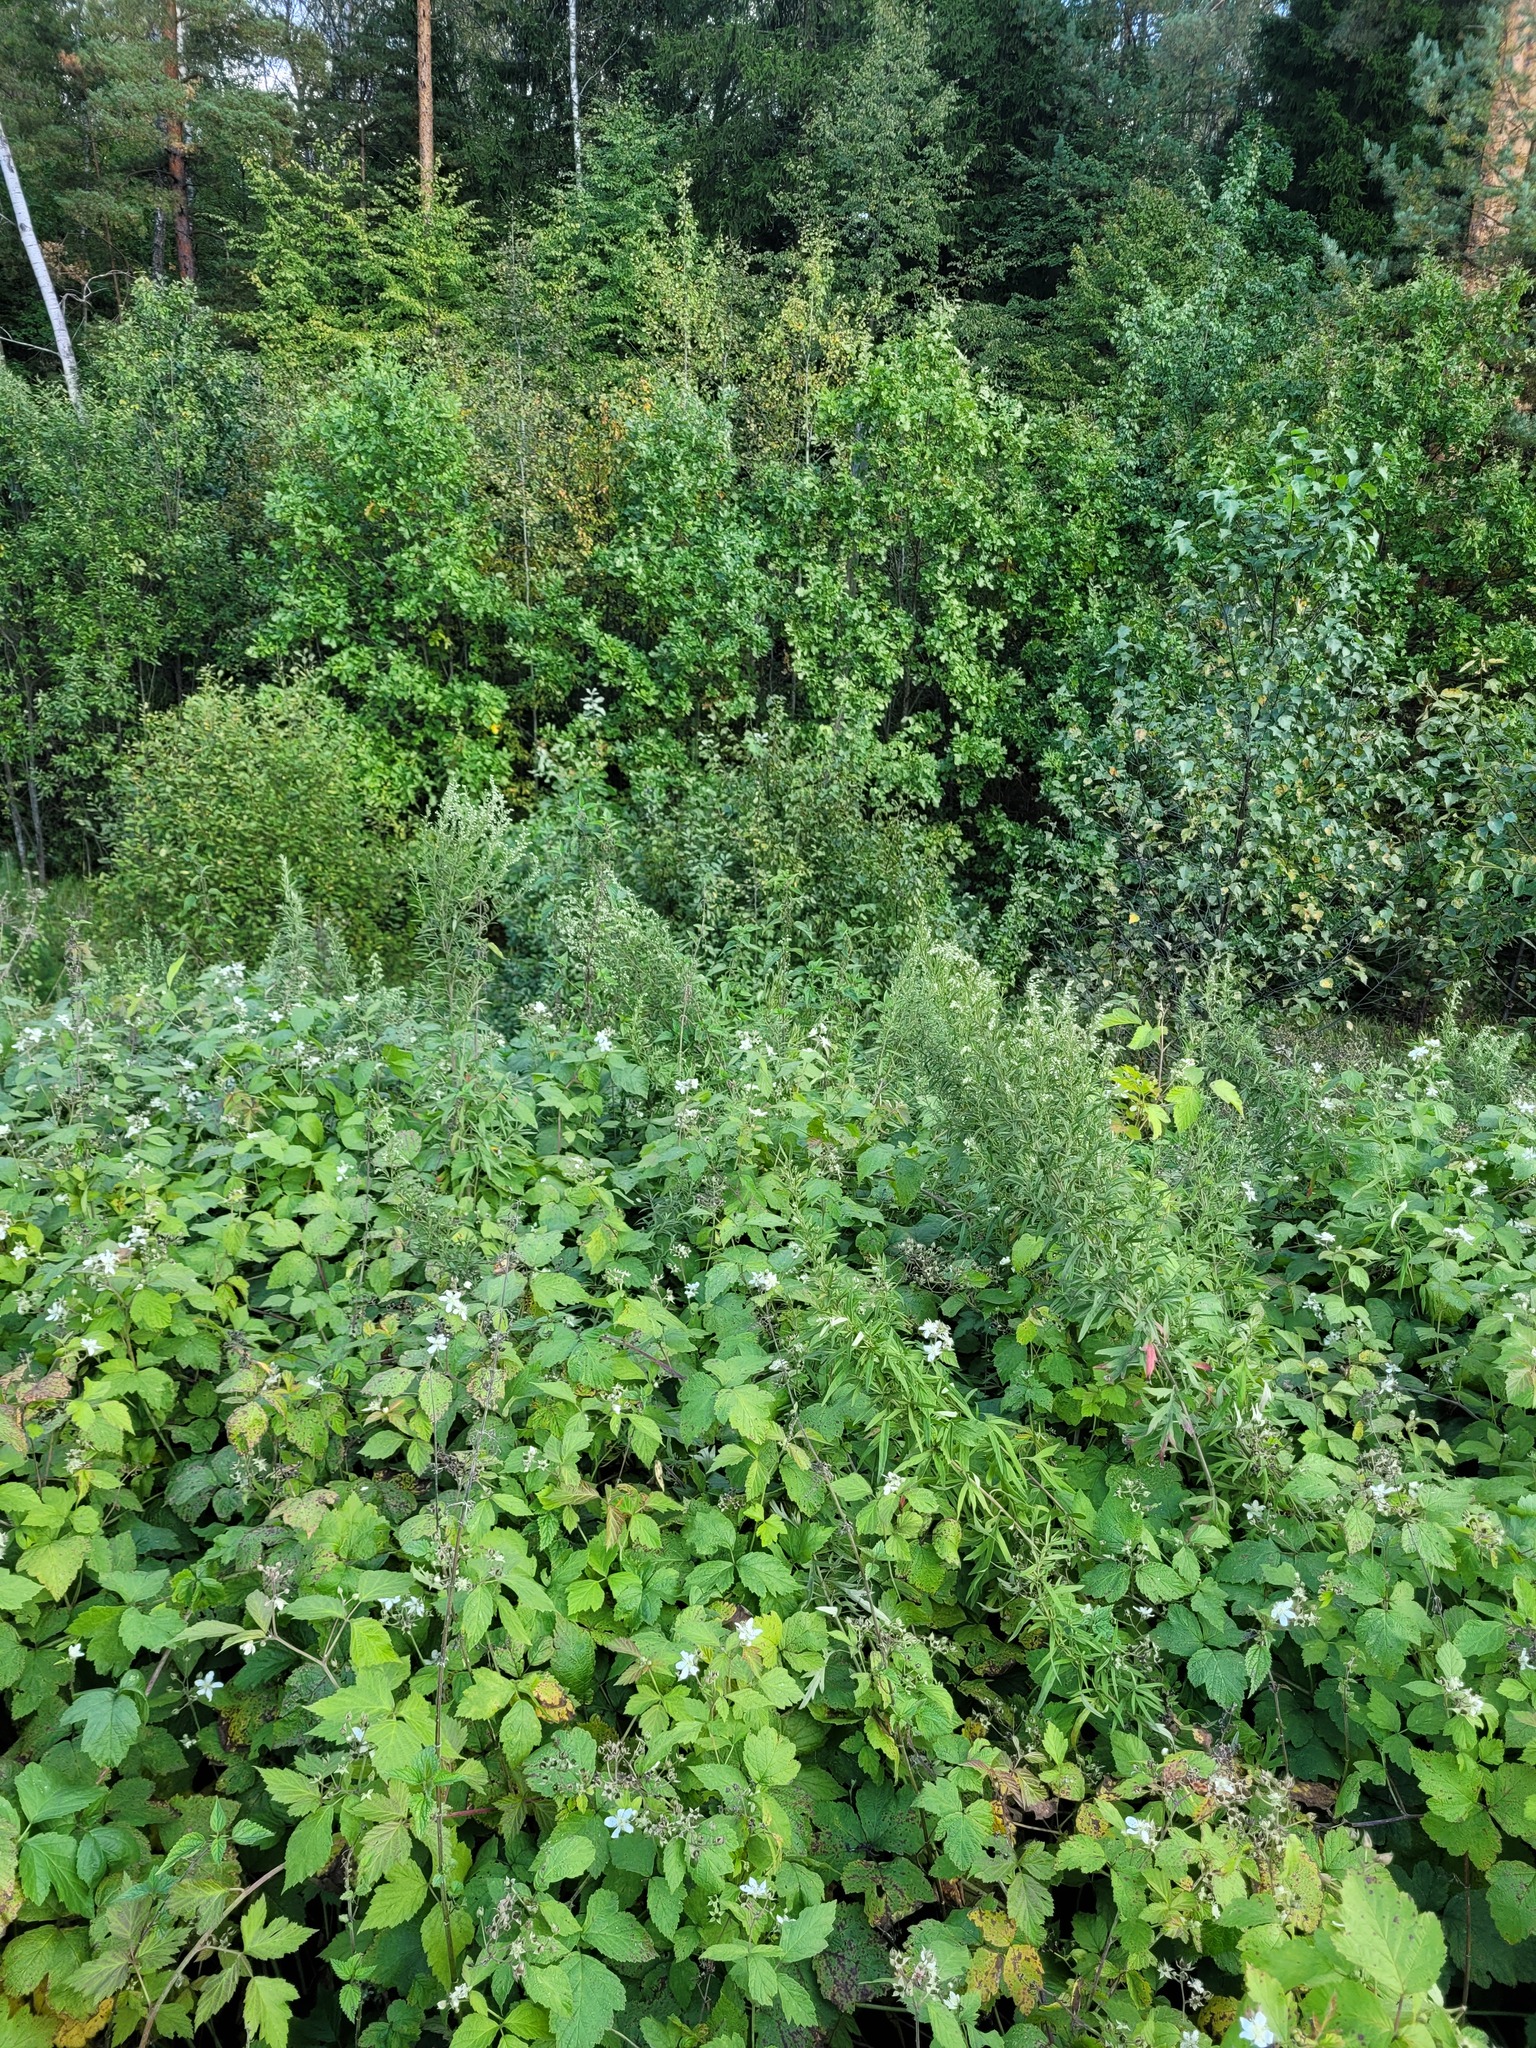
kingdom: Plantae
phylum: Tracheophyta
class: Magnoliopsida
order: Rosales
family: Rosaceae
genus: Rubus
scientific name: Rubus caesius
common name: Dewberry
